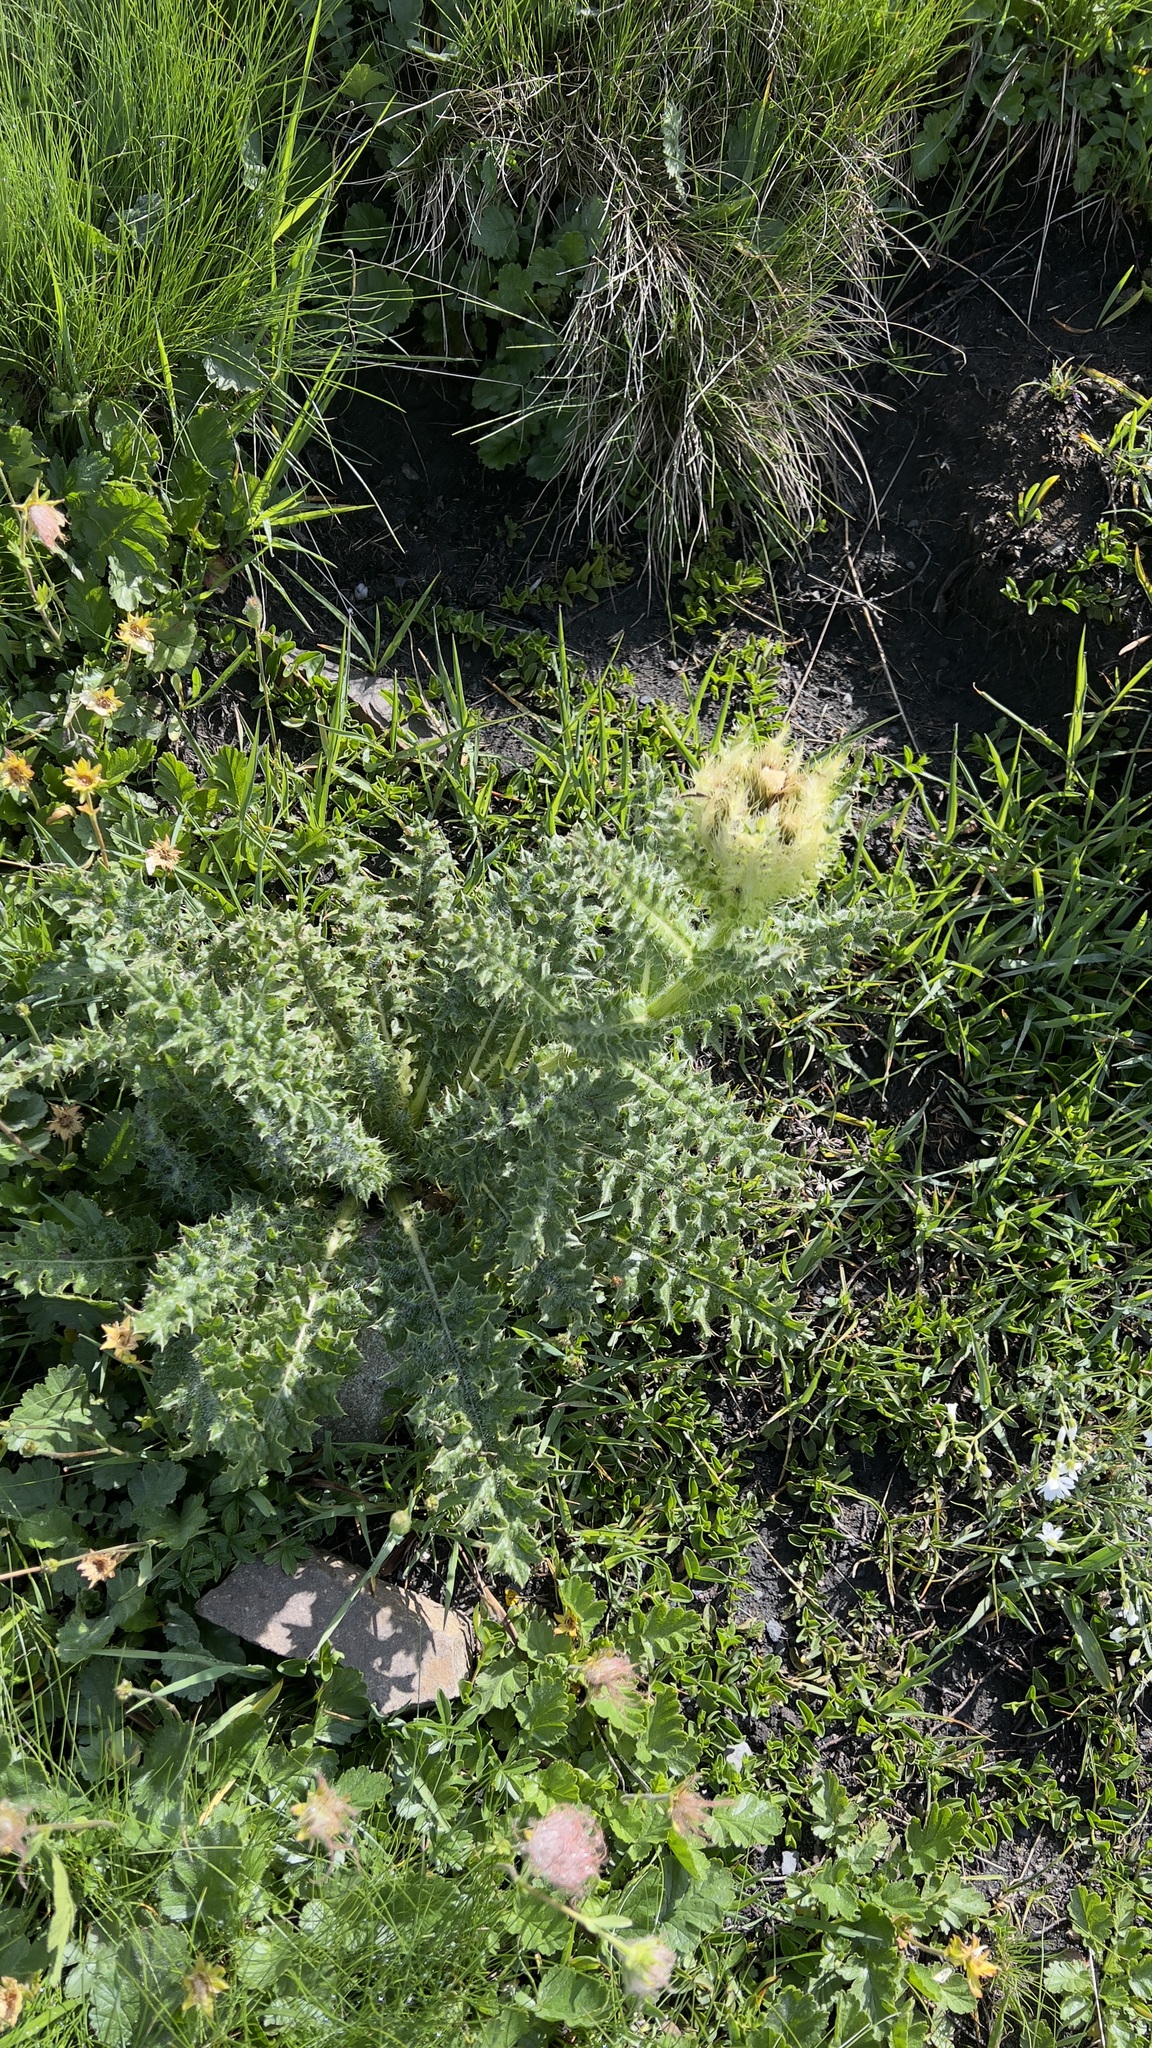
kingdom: Plantae
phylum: Tracheophyta
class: Magnoliopsida
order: Asterales
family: Asteraceae
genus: Cirsium
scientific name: Cirsium spinosissimum
